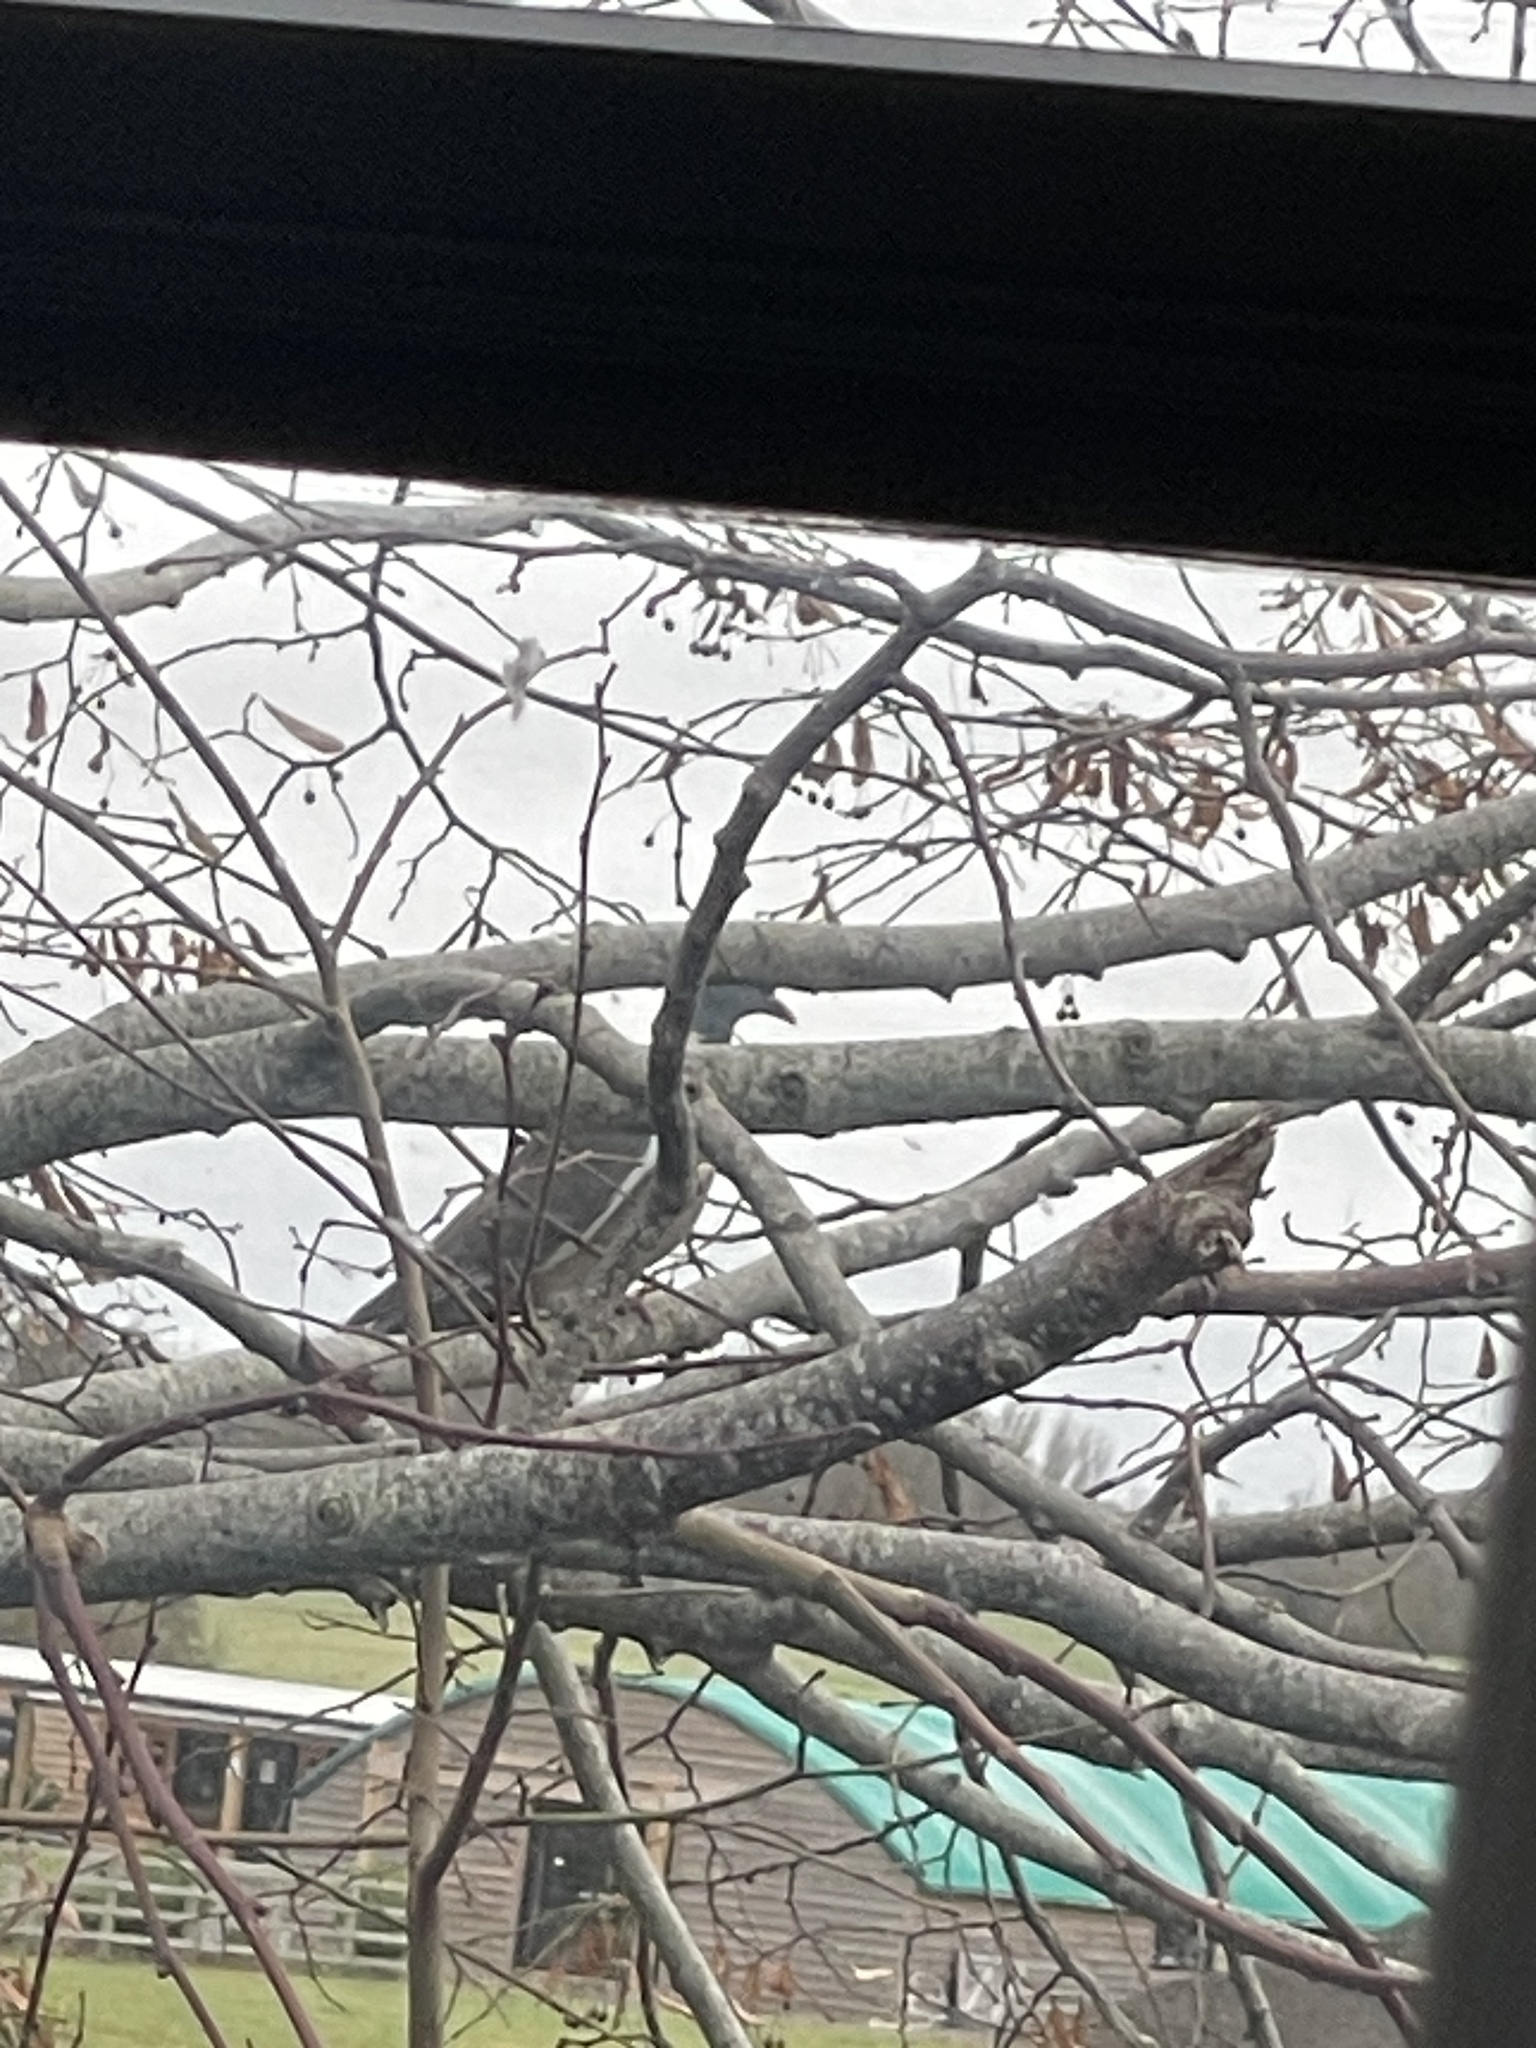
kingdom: Animalia
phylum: Chordata
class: Aves
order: Columbiformes
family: Columbidae
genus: Columba
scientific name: Columba palumbus
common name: Common wood pigeon
